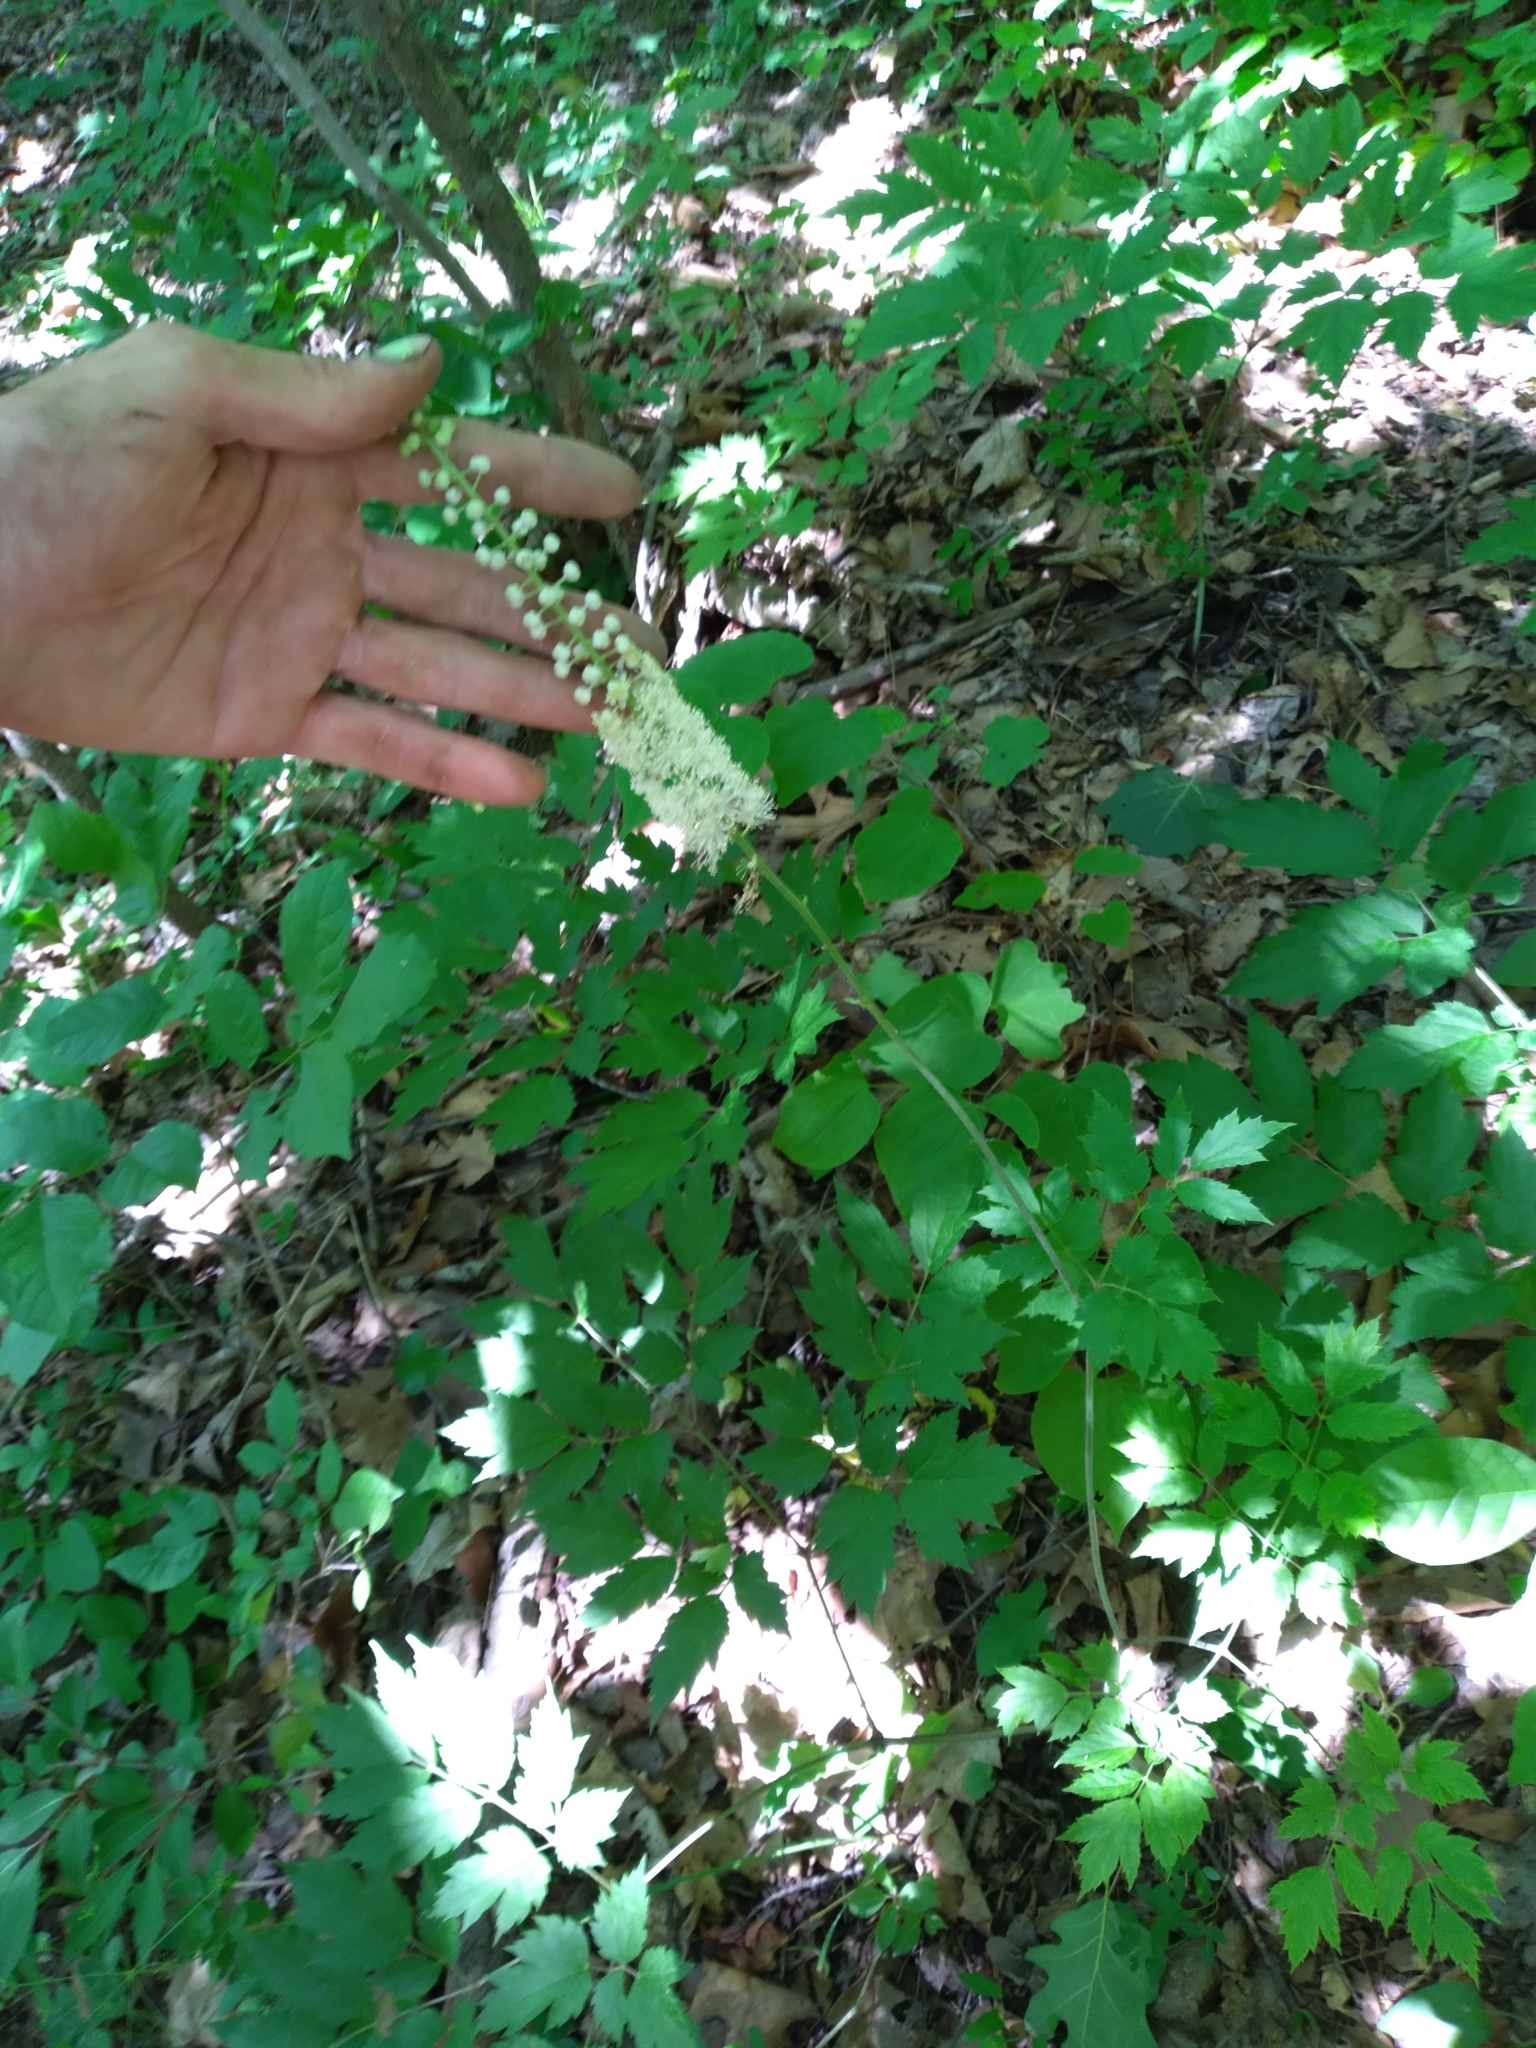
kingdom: Plantae
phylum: Tracheophyta
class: Magnoliopsida
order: Ranunculales
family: Ranunculaceae
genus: Actaea
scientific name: Actaea racemosa
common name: Black cohosh
